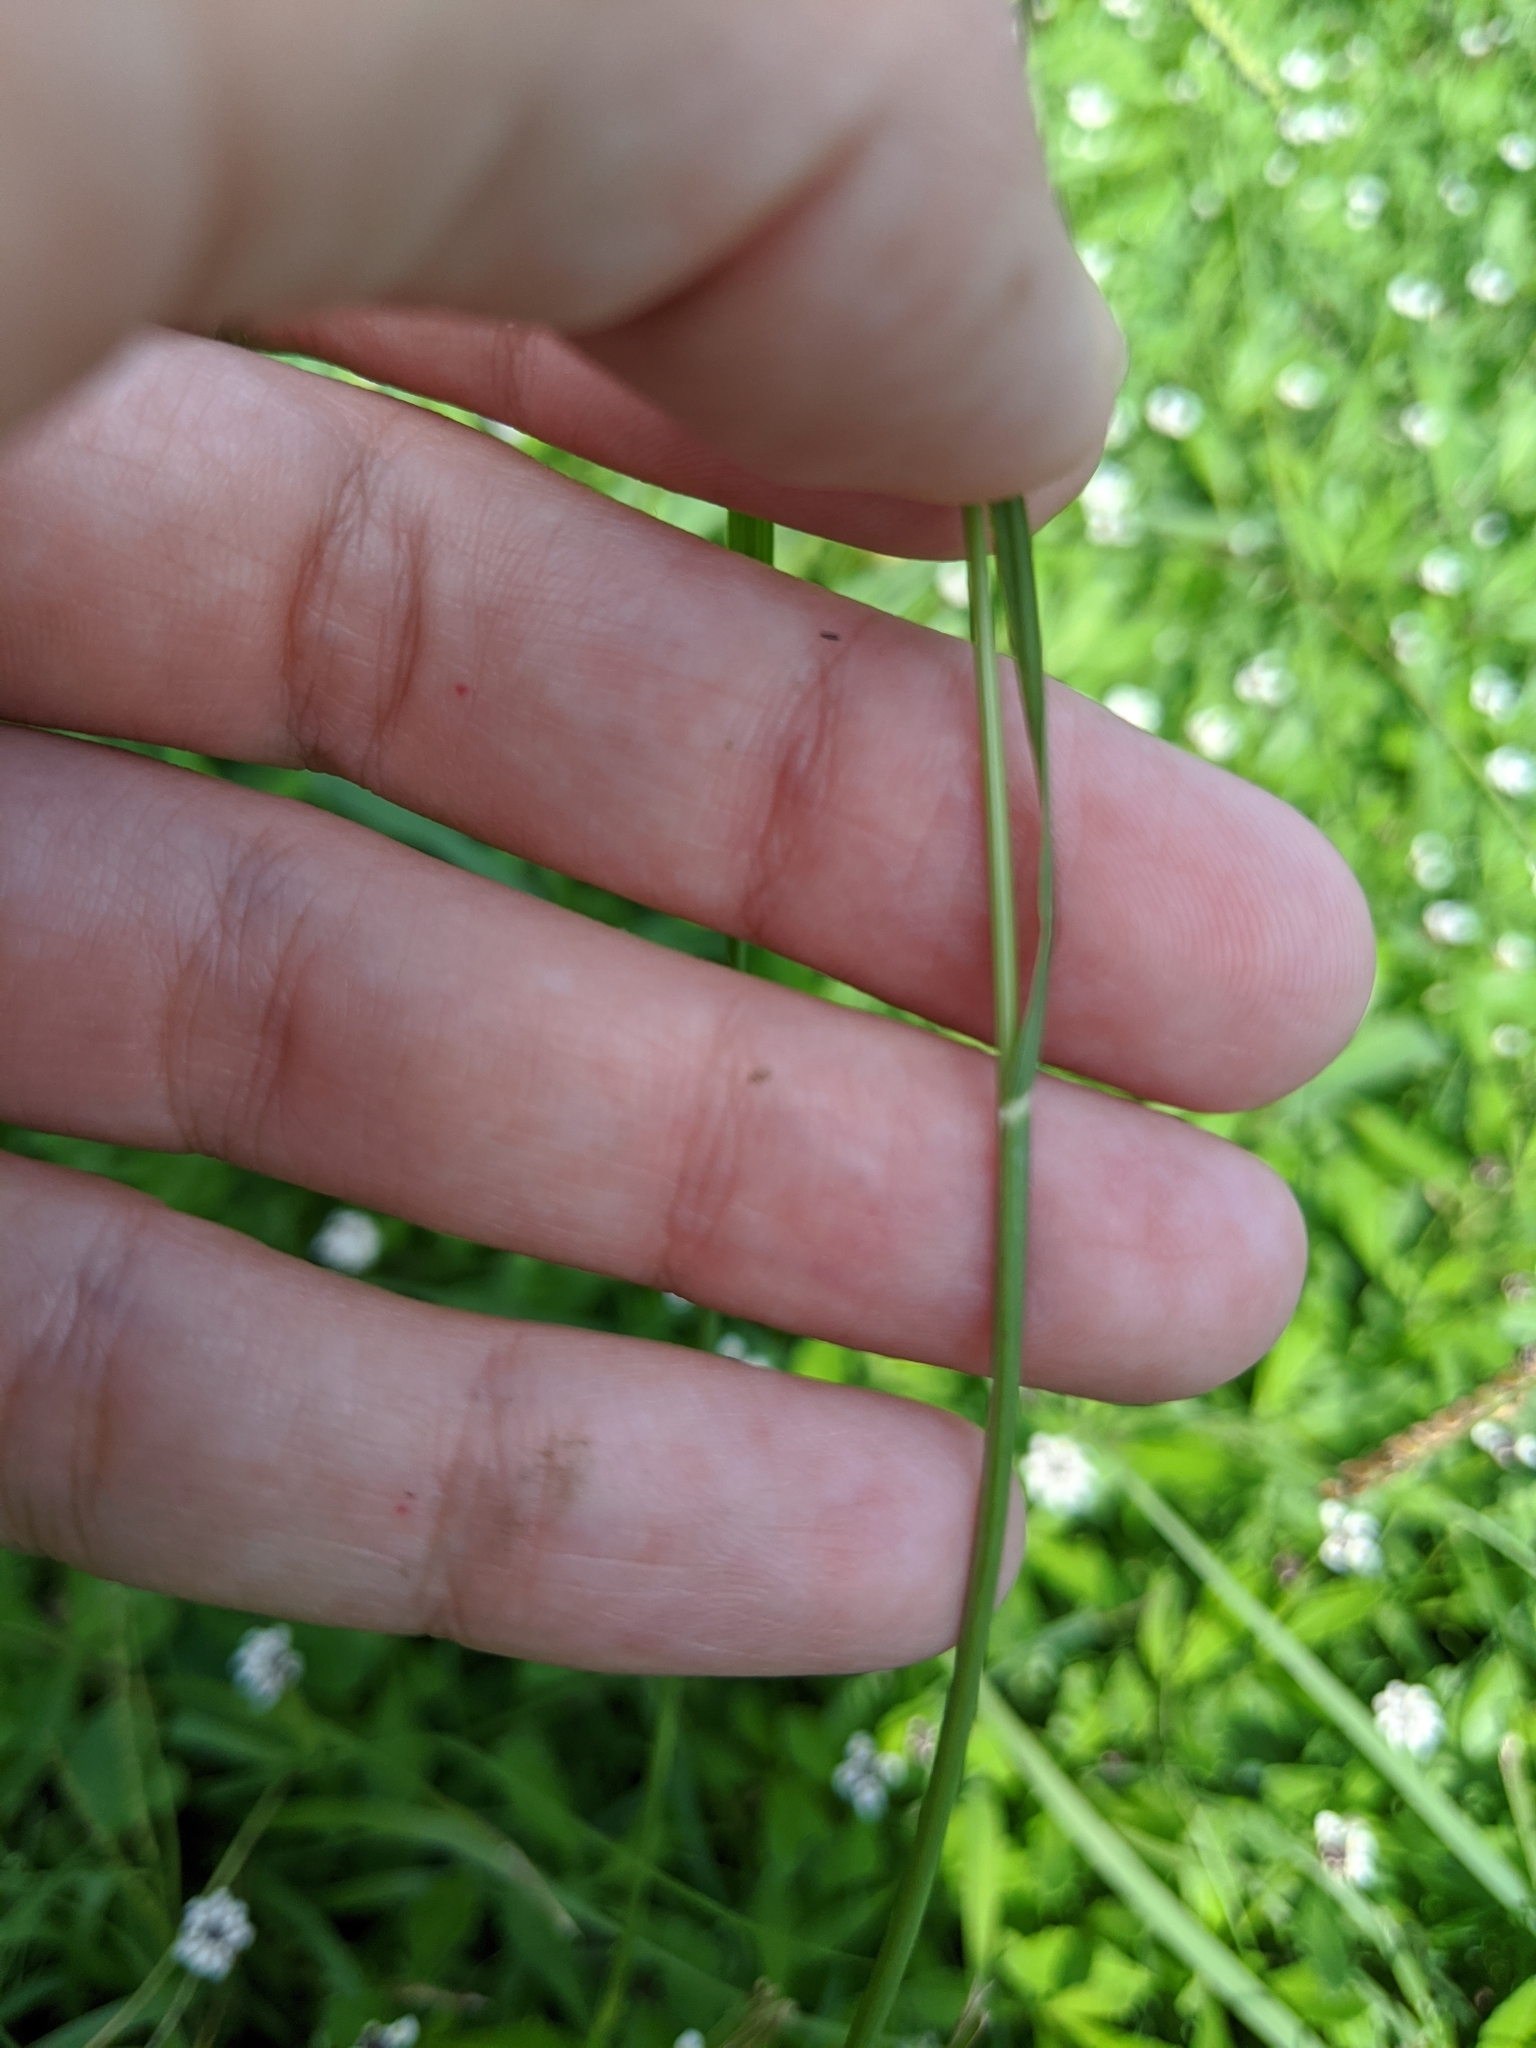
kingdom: Plantae
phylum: Tracheophyta
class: Liliopsida
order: Poales
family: Poaceae
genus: Sporobolus
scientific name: Sporobolus indicus
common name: Smut grass
